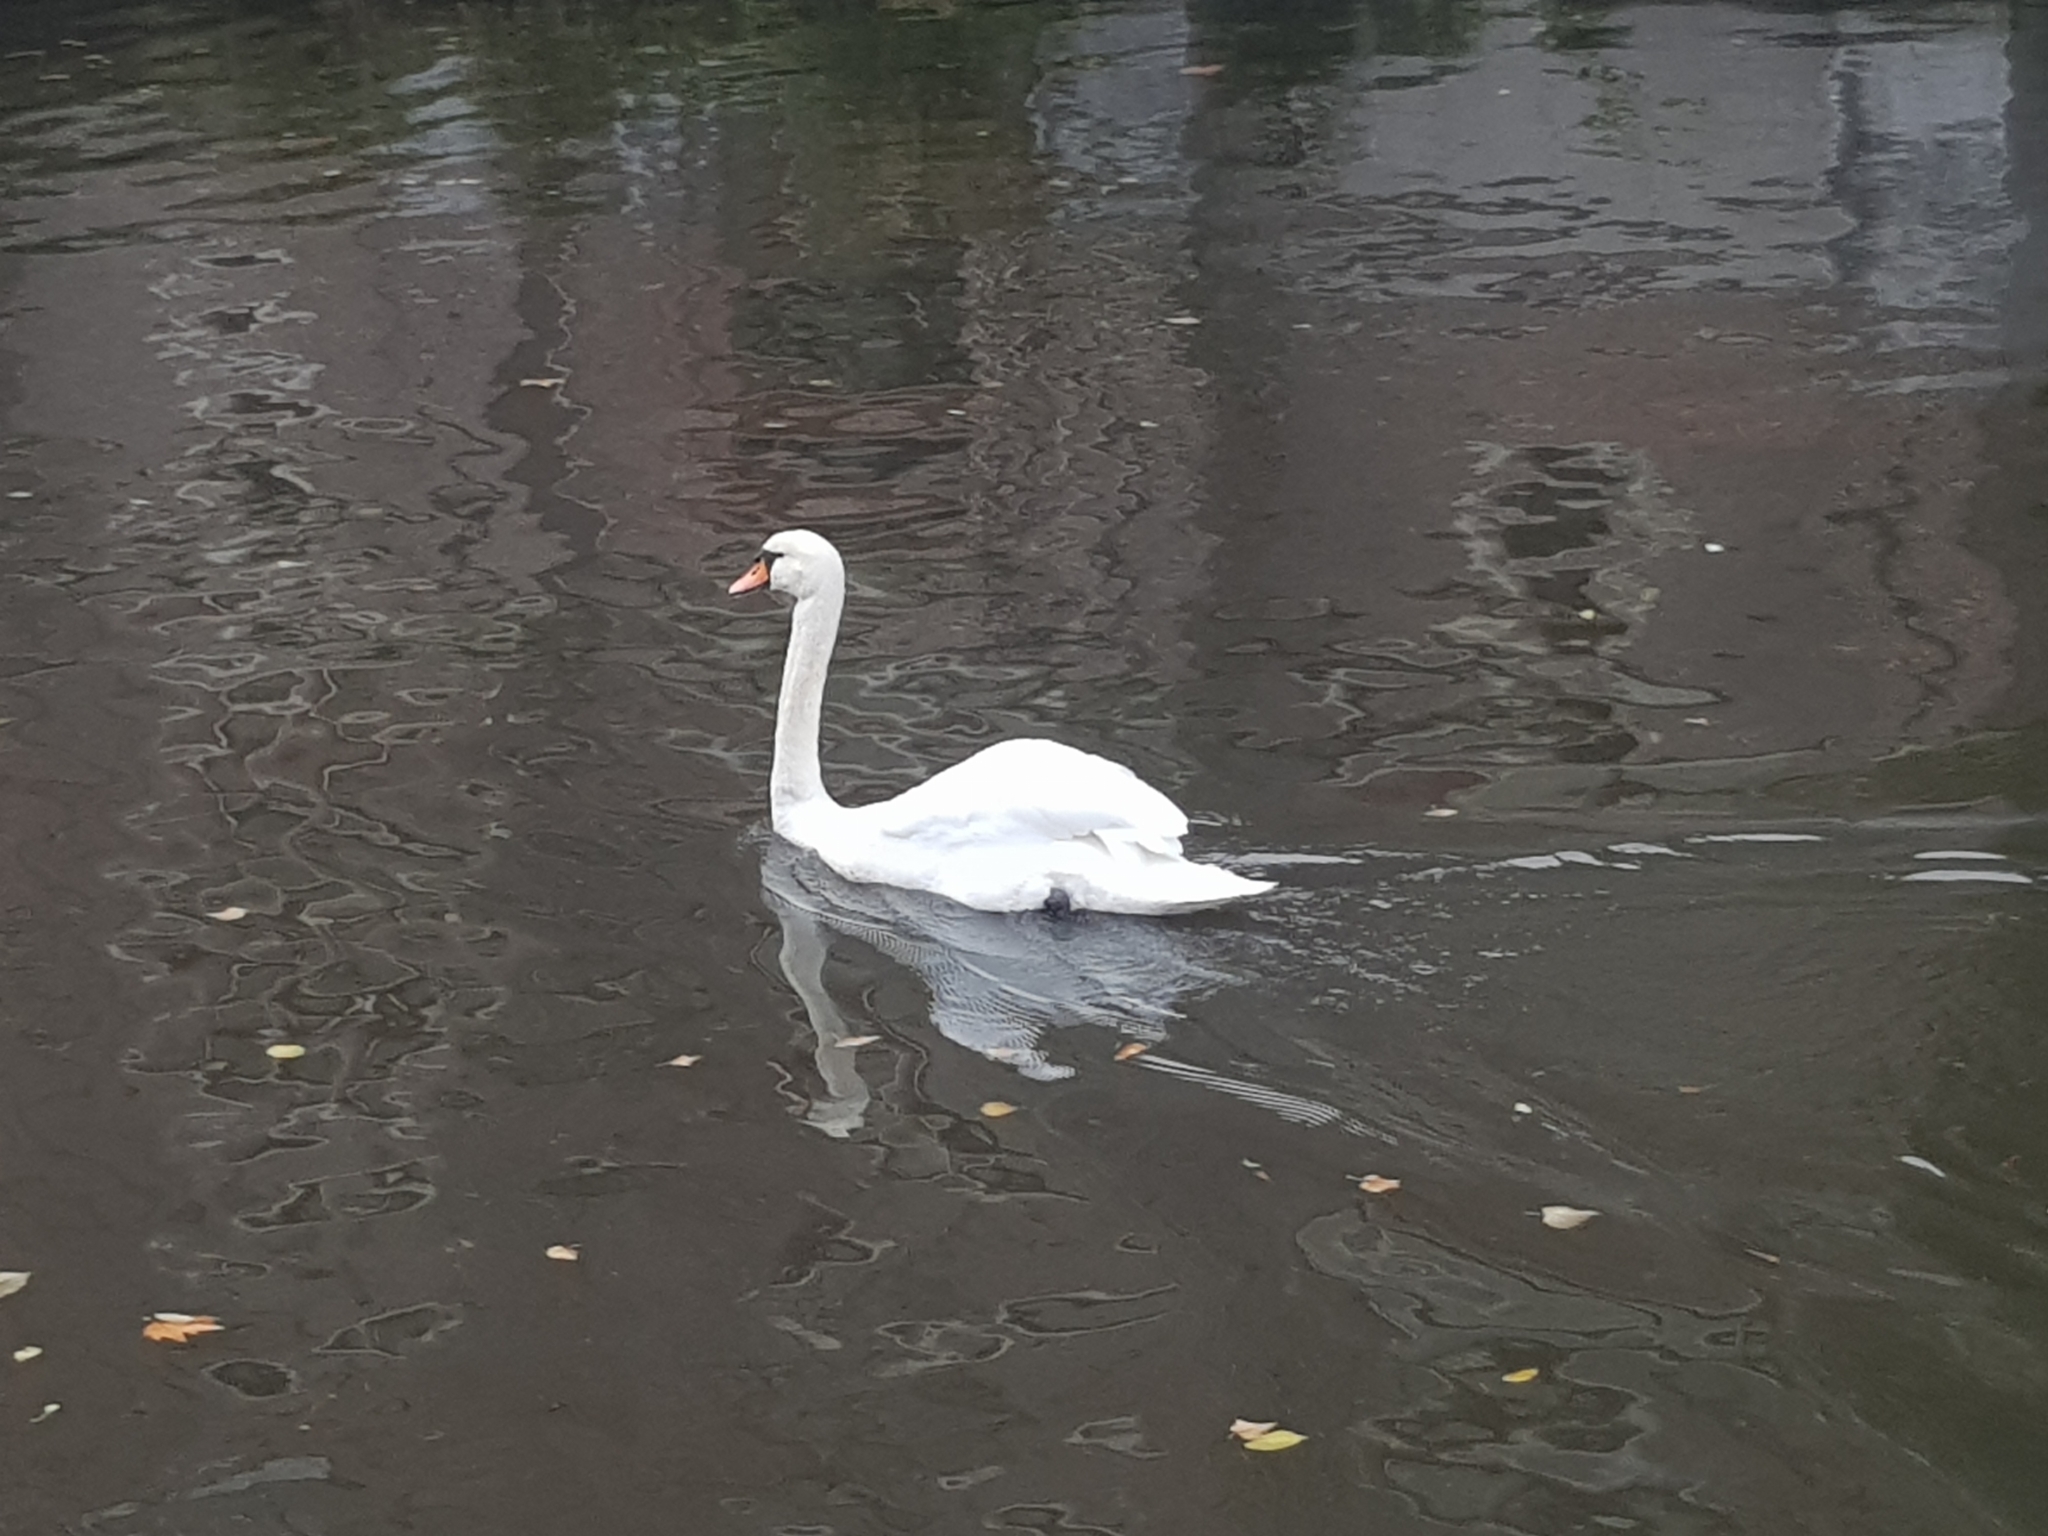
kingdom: Animalia
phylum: Chordata
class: Aves
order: Anseriformes
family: Anatidae
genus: Cygnus
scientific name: Cygnus olor
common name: Mute swan
